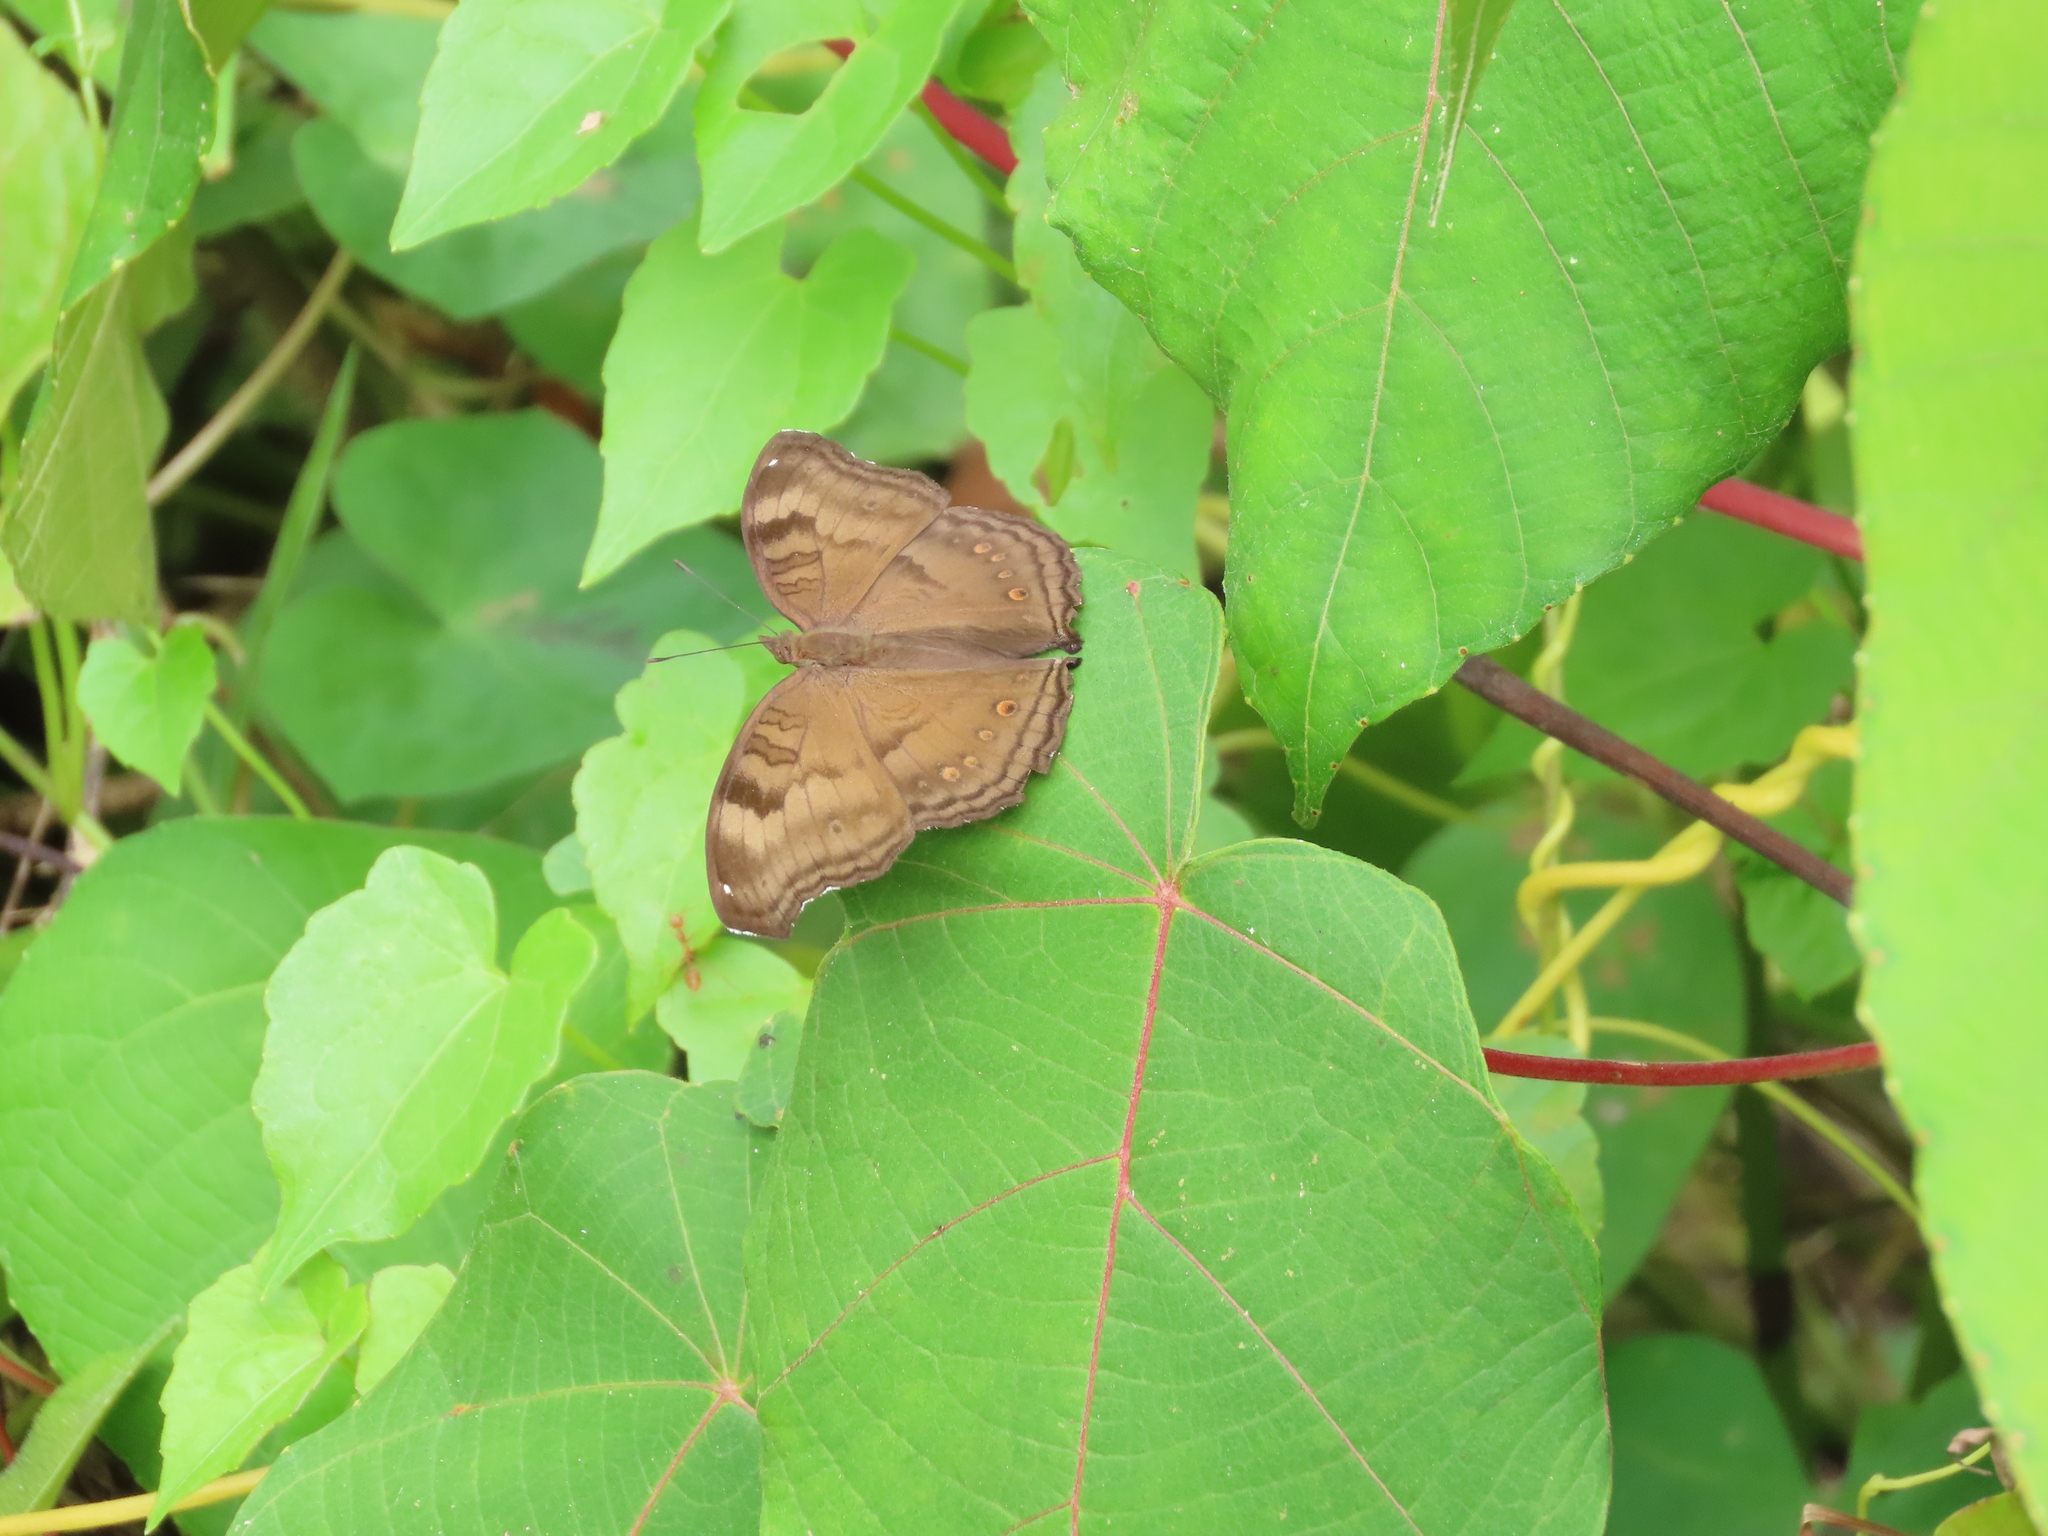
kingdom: Animalia
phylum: Arthropoda
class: Insecta
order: Lepidoptera
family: Nymphalidae
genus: Junonia
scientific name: Junonia iphita
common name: Chocolate pansy
